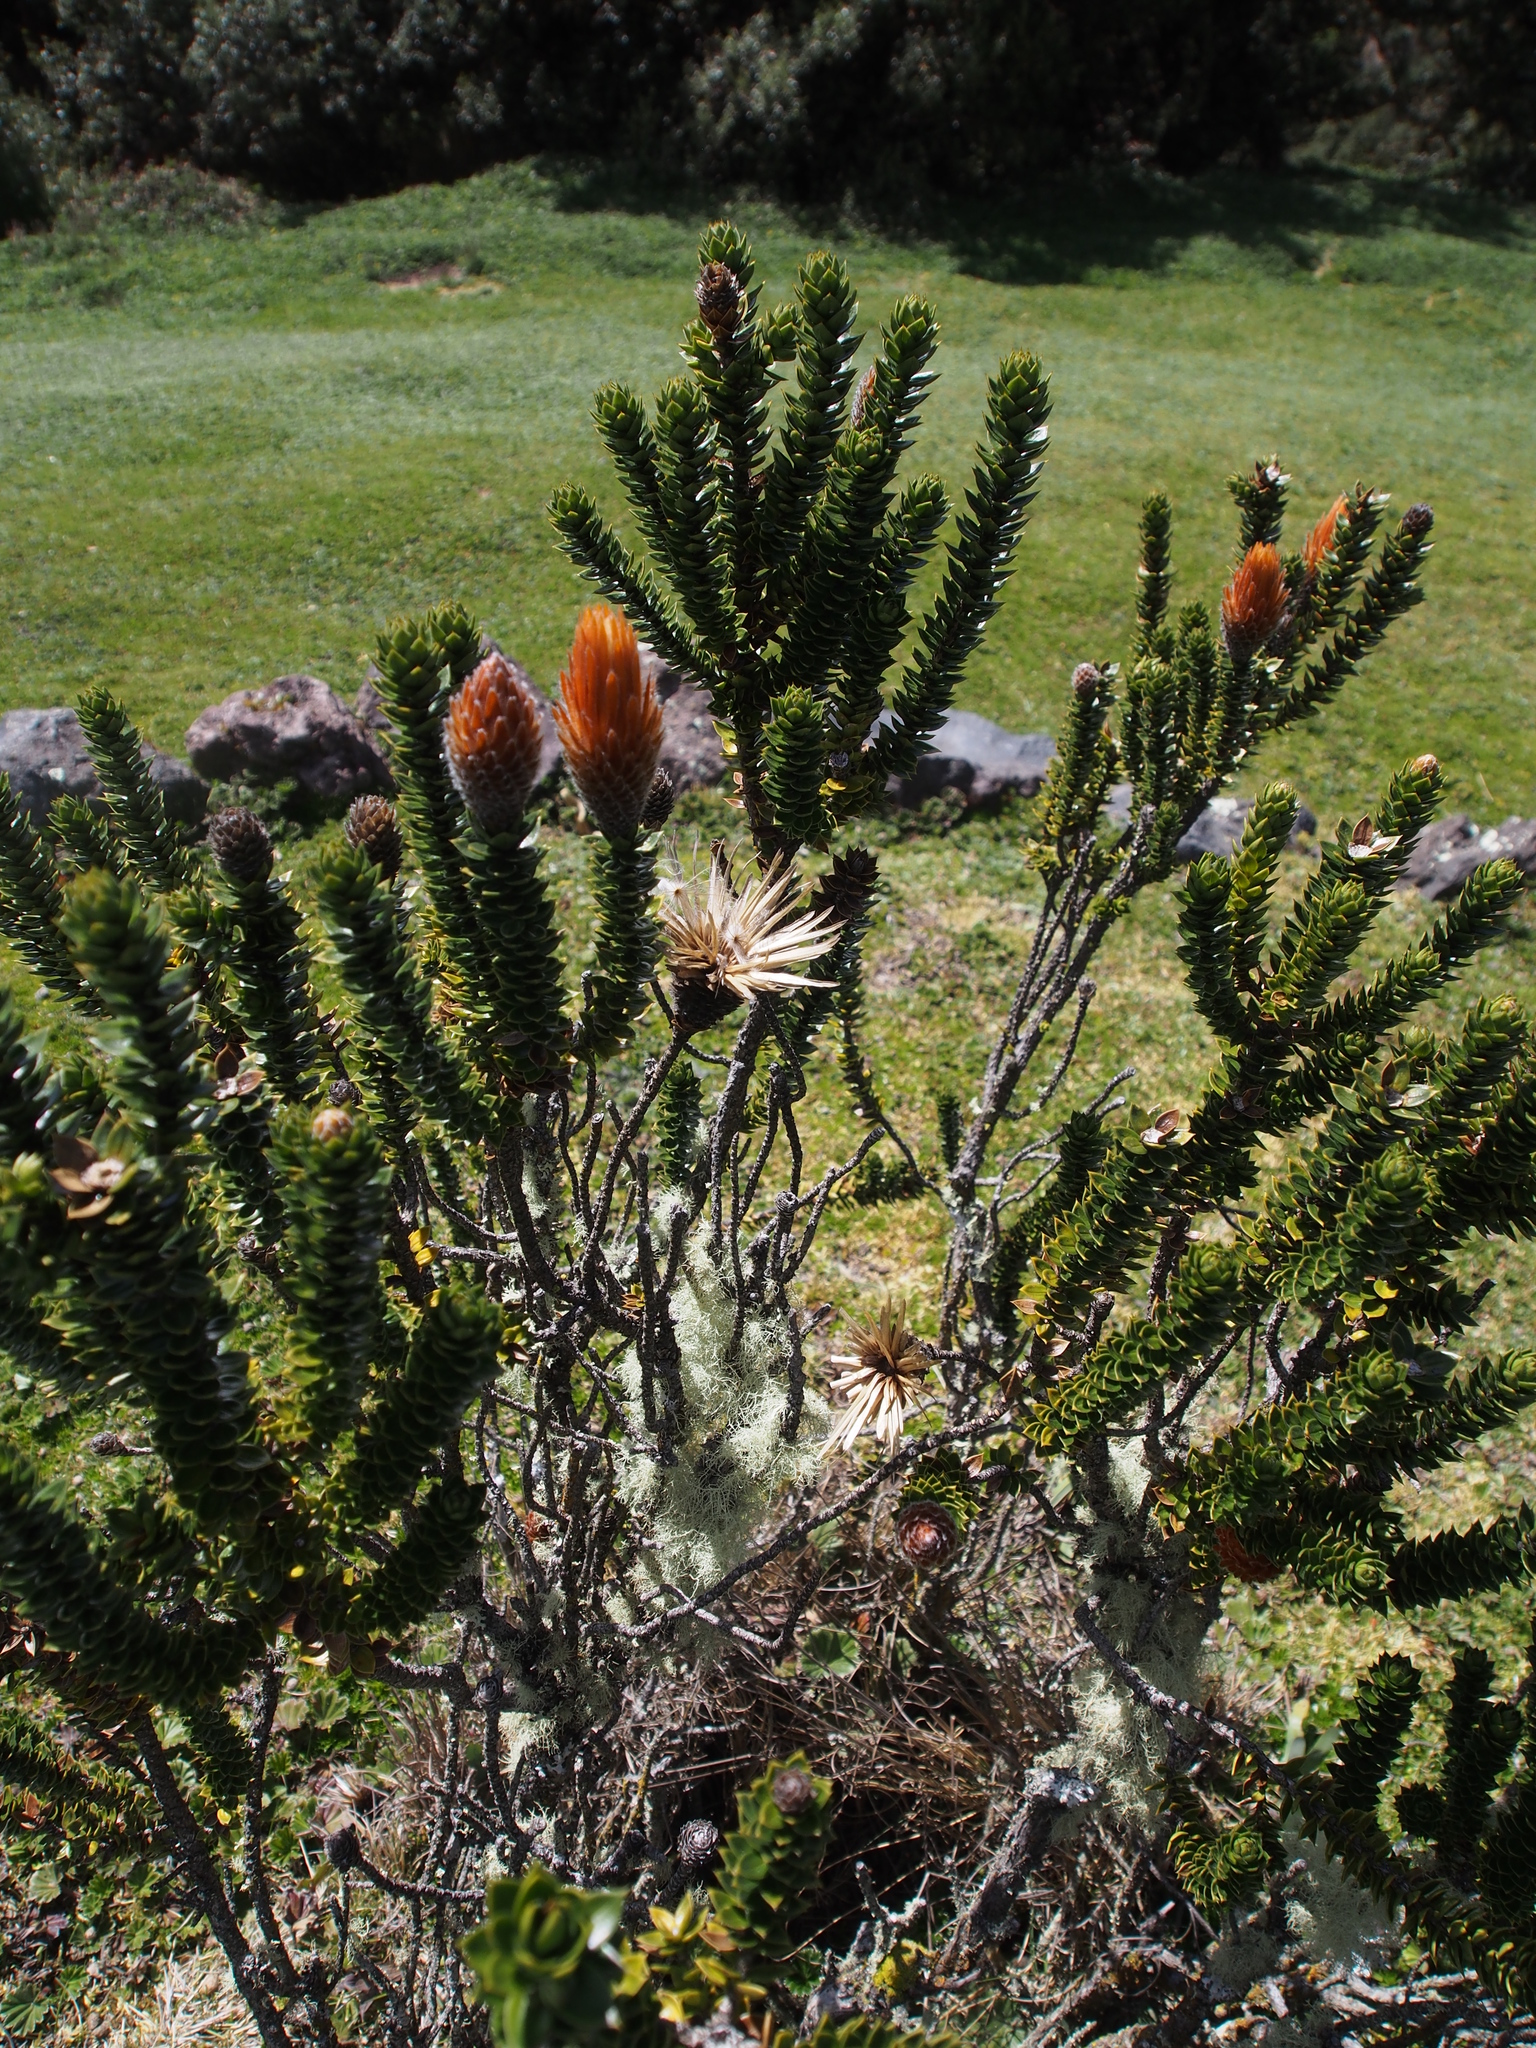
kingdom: Plantae
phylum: Tracheophyta
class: Magnoliopsida
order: Asterales
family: Asteraceae
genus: Chuquiraga
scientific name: Chuquiraga jussieui
